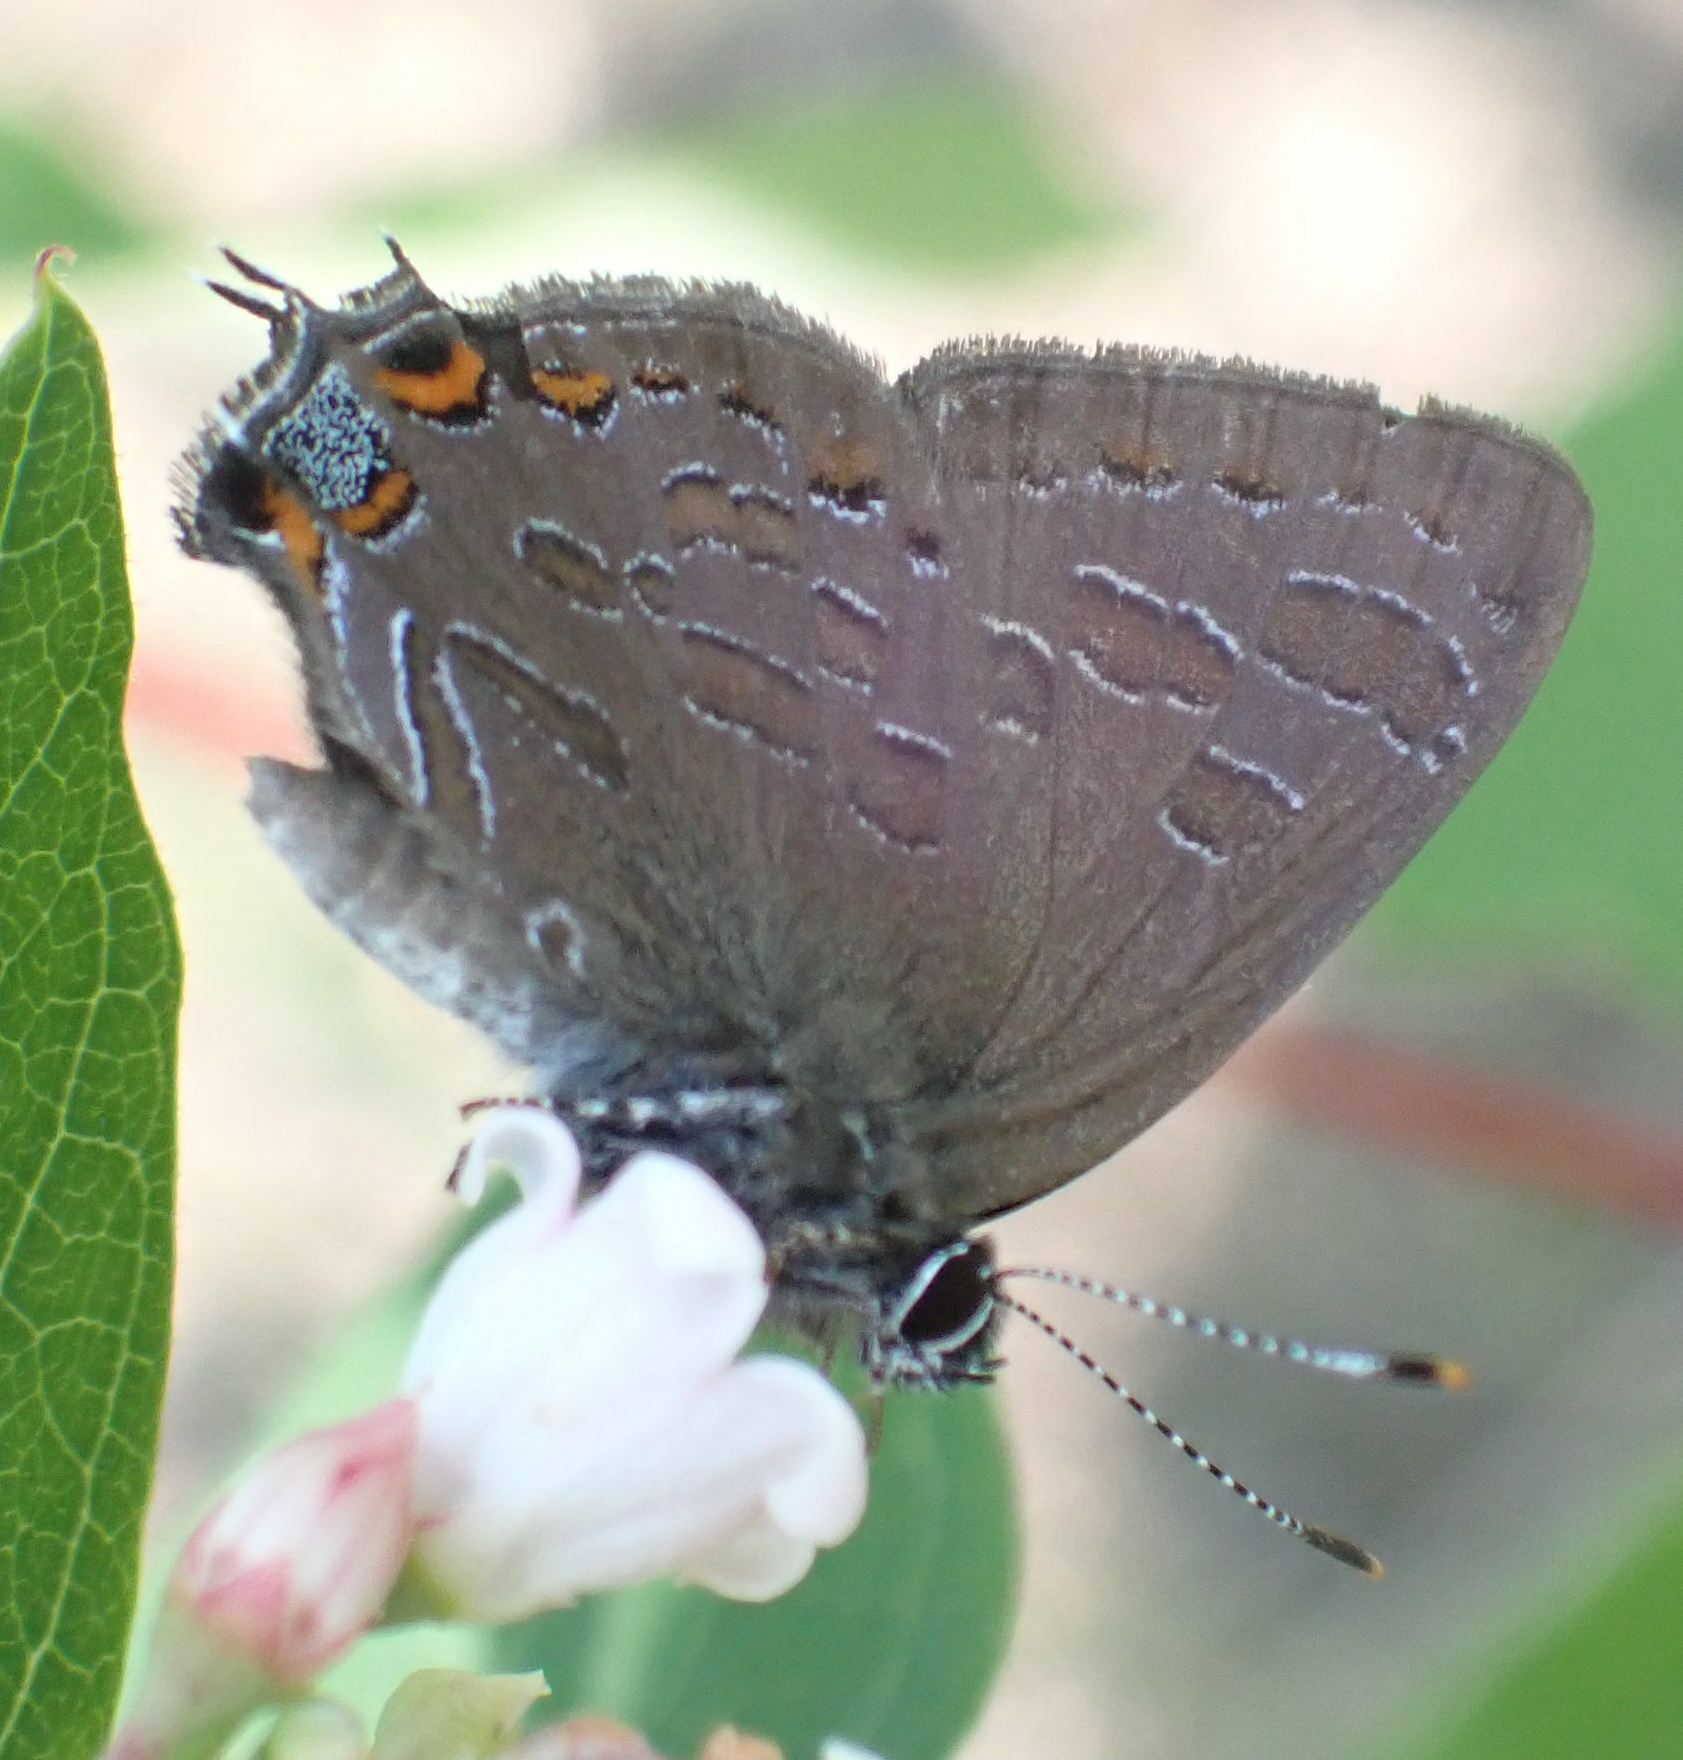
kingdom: Animalia
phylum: Arthropoda
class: Insecta
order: Lepidoptera
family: Lycaenidae
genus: Satyrium
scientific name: Satyrium liparops
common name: Striped hairstreak
